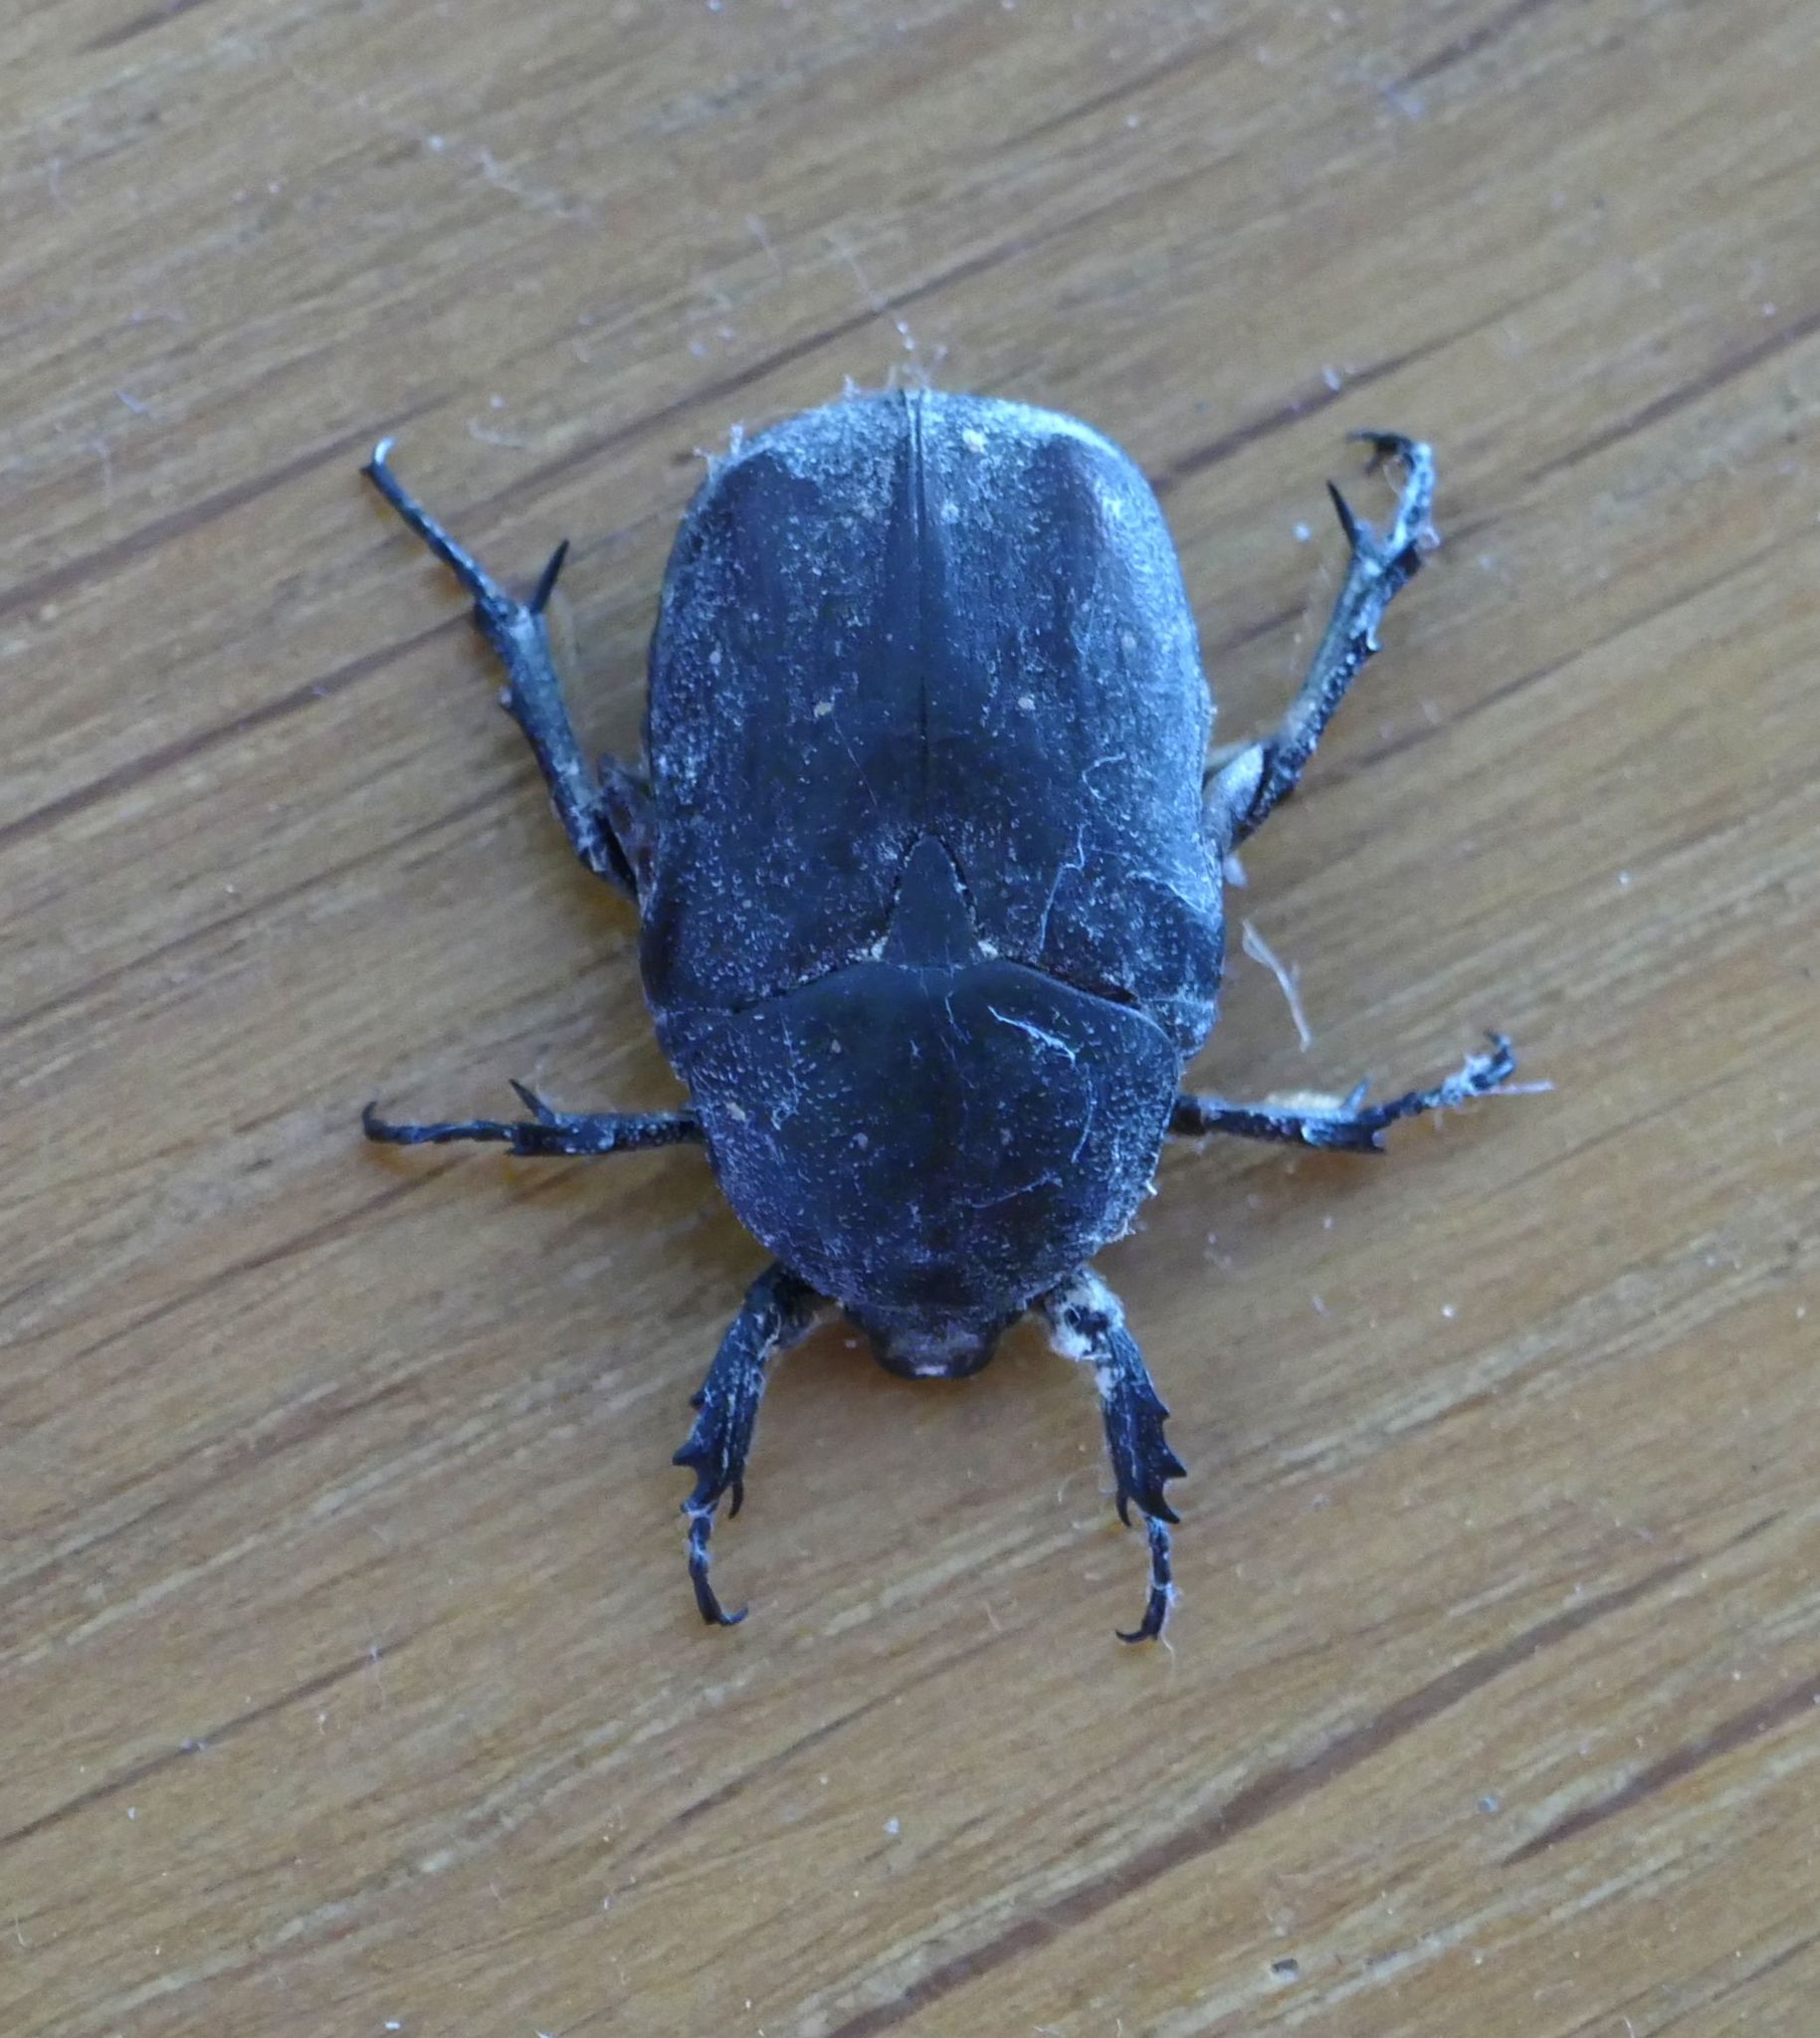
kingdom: Animalia
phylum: Arthropoda
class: Insecta
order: Coleoptera
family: Scarabaeidae
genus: Protaetia
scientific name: Protaetia morio
